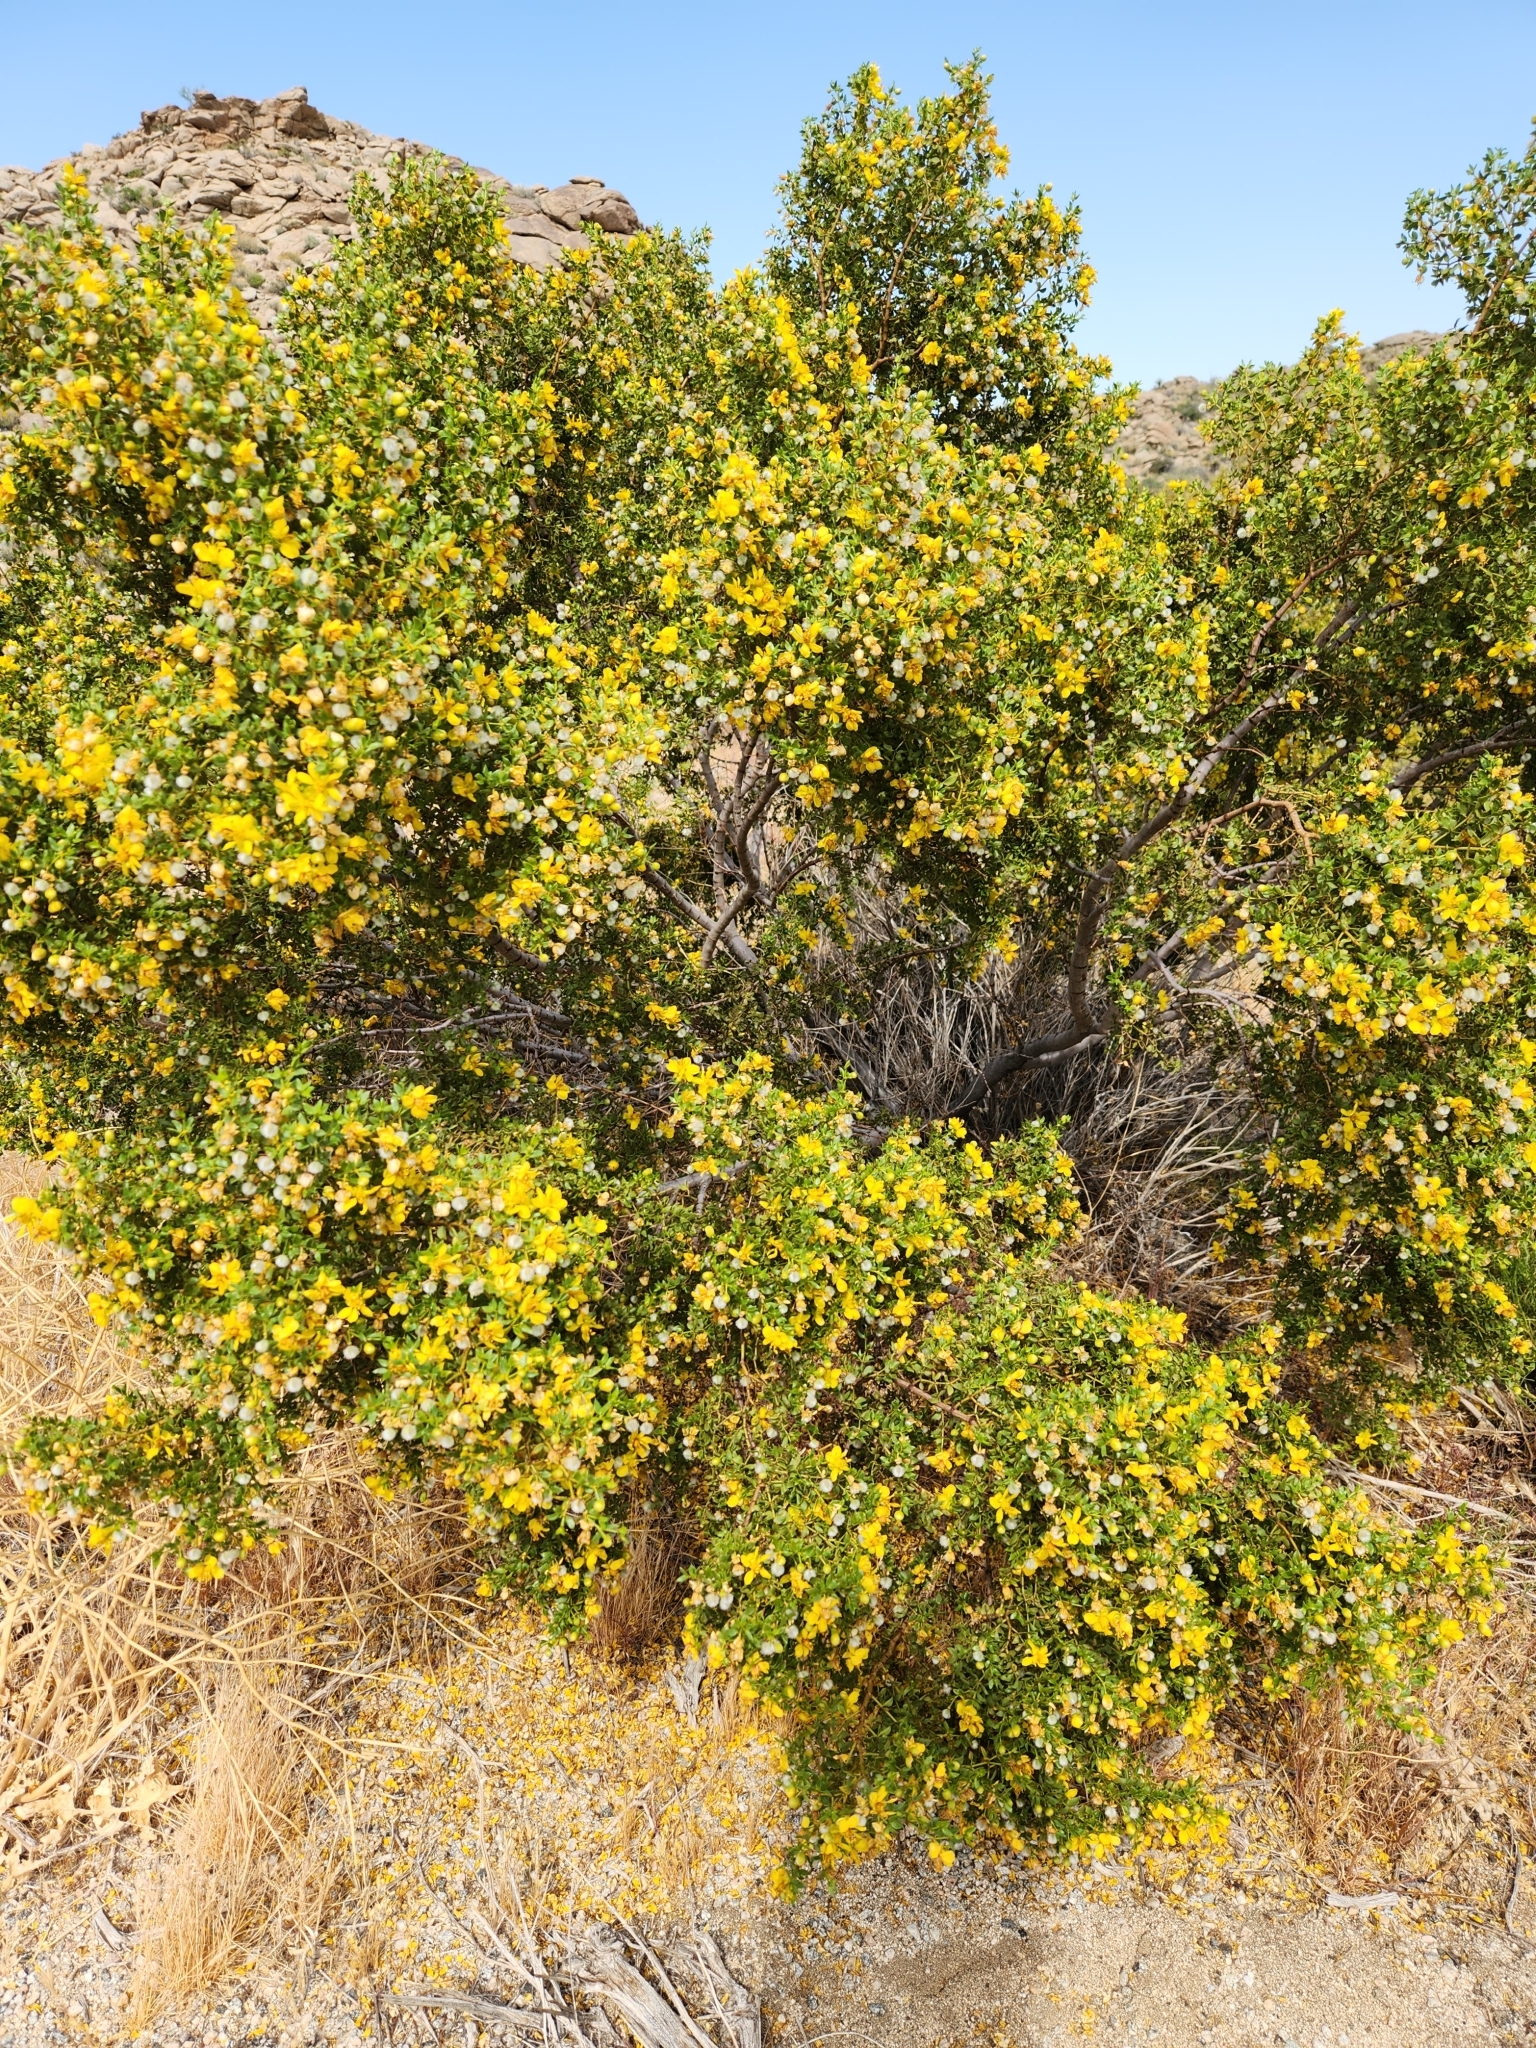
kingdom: Plantae
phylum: Tracheophyta
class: Magnoliopsida
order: Zygophyllales
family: Zygophyllaceae
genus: Larrea
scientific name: Larrea tridentata
